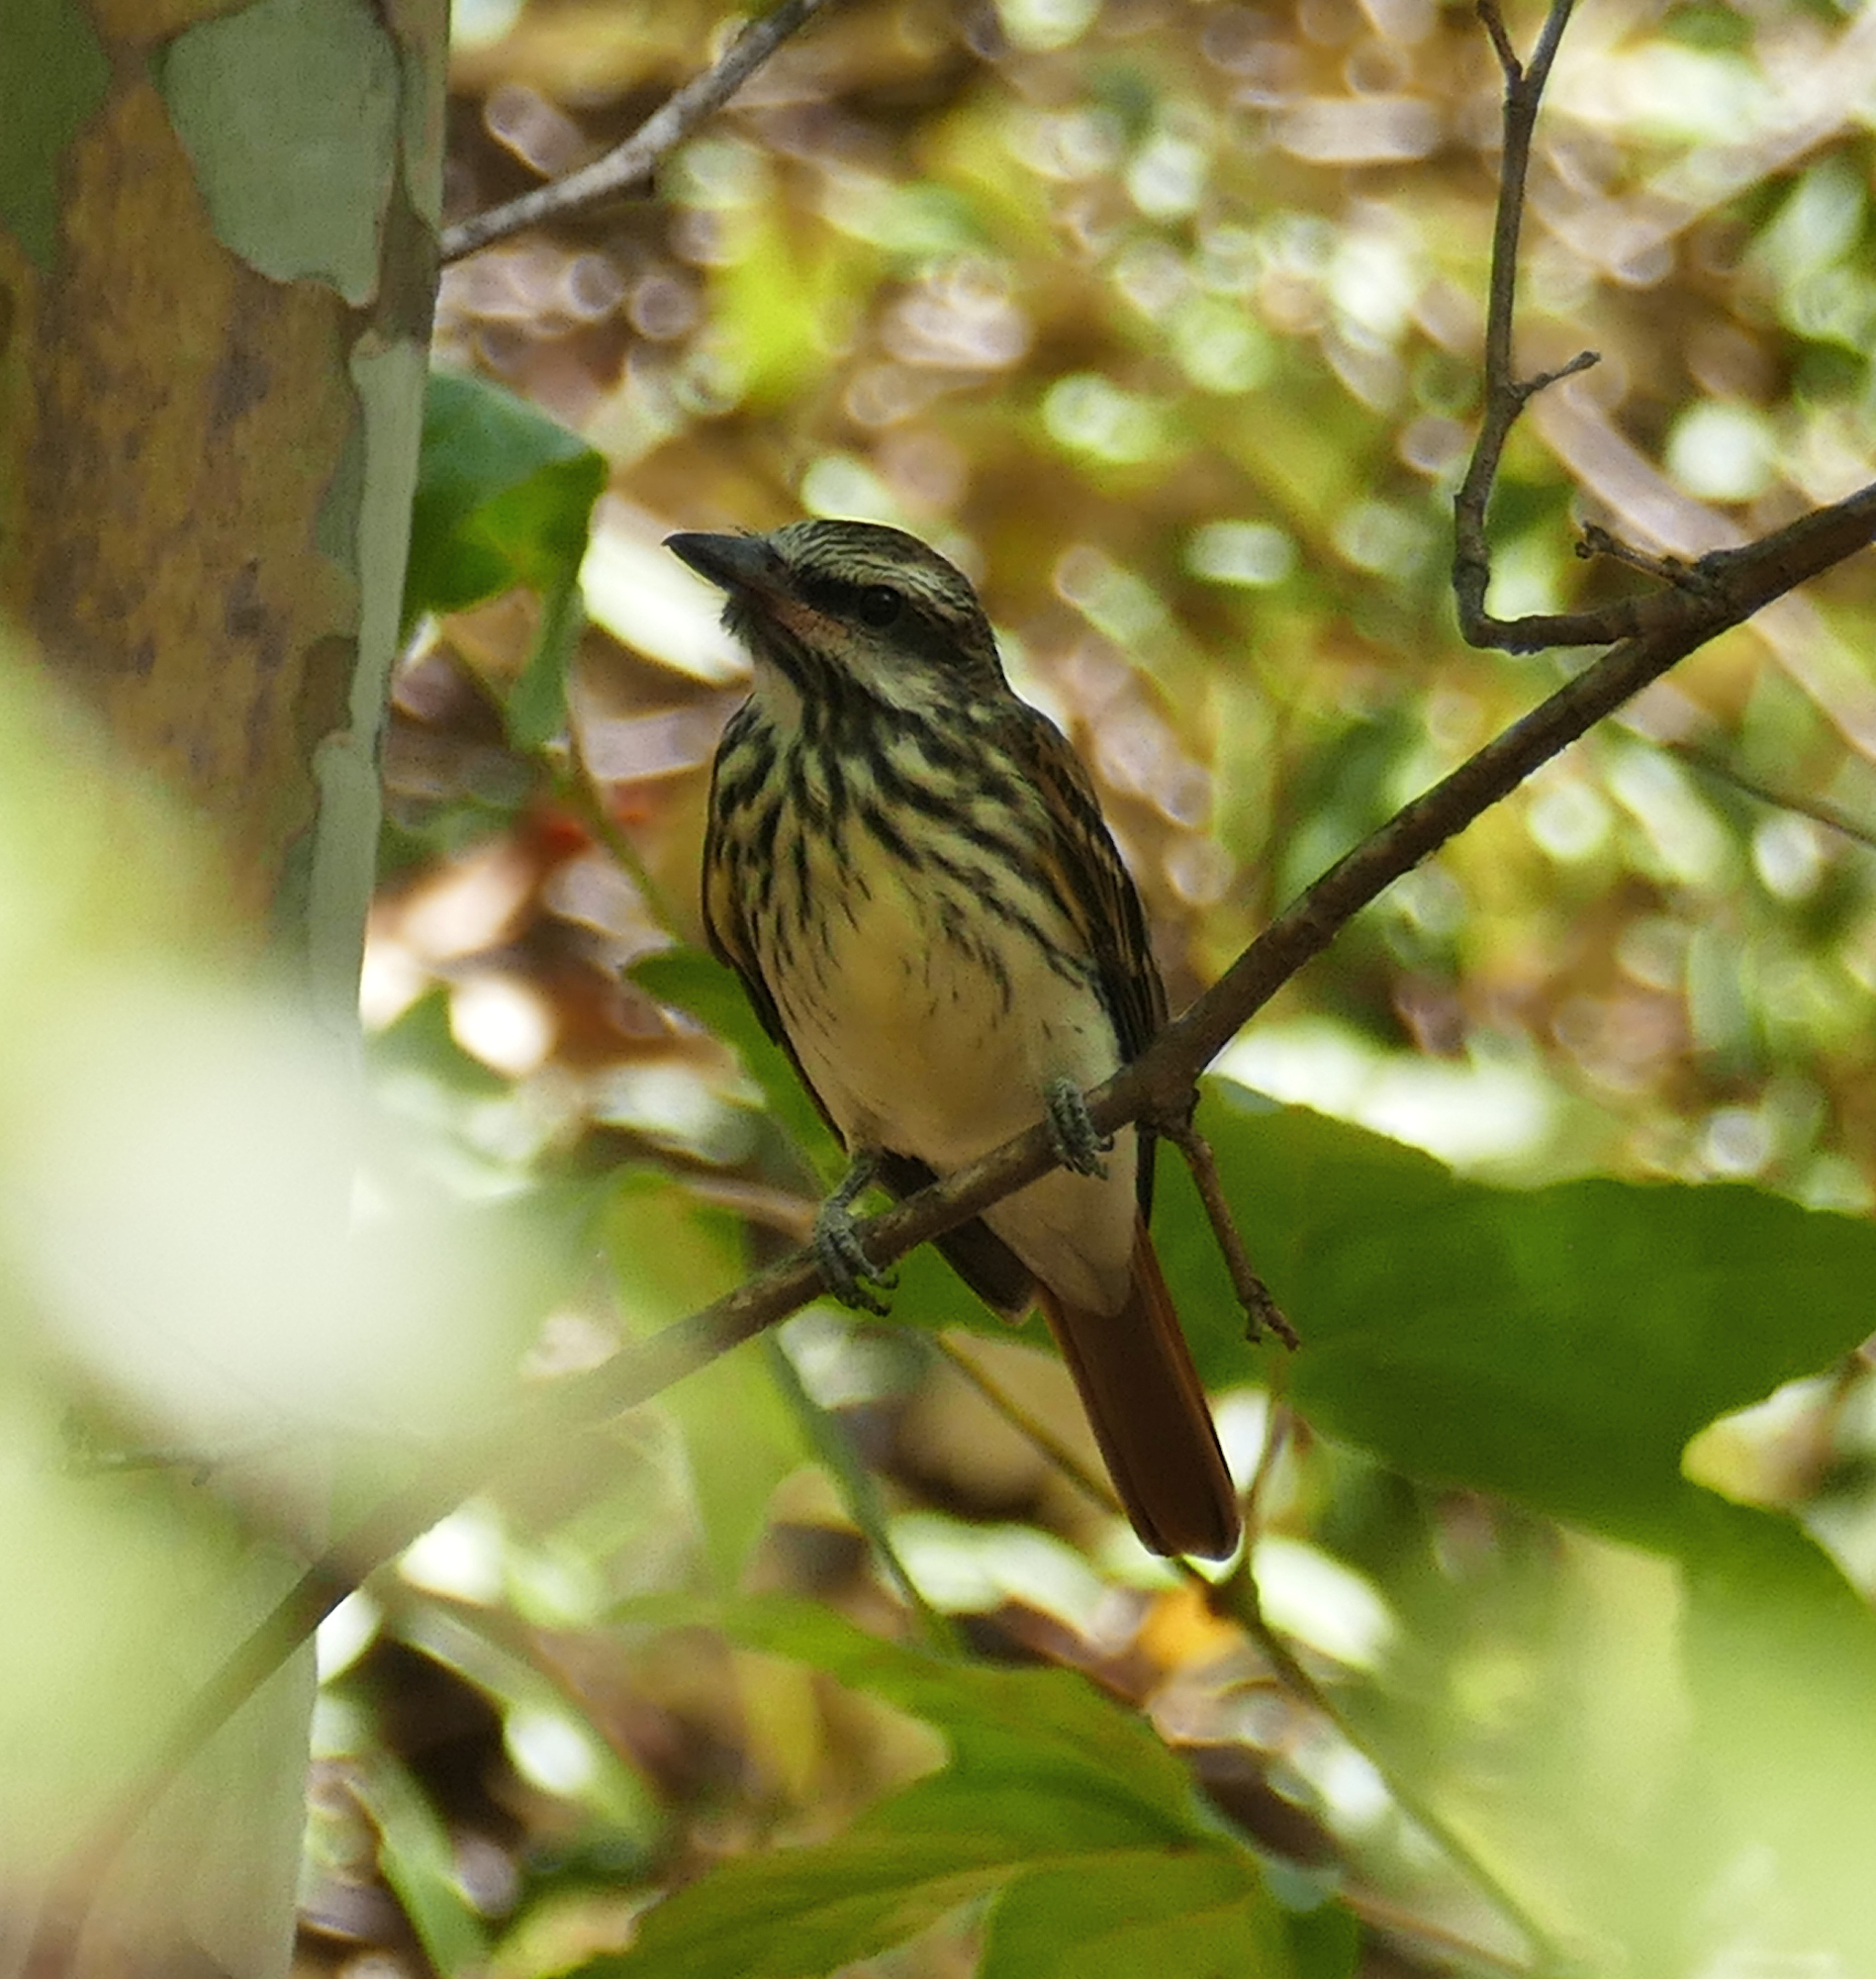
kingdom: Animalia
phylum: Chordata
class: Aves
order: Passeriformes
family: Tyrannidae
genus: Myiodynastes
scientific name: Myiodynastes luteiventris
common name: Sulphur-bellied flycatcher
